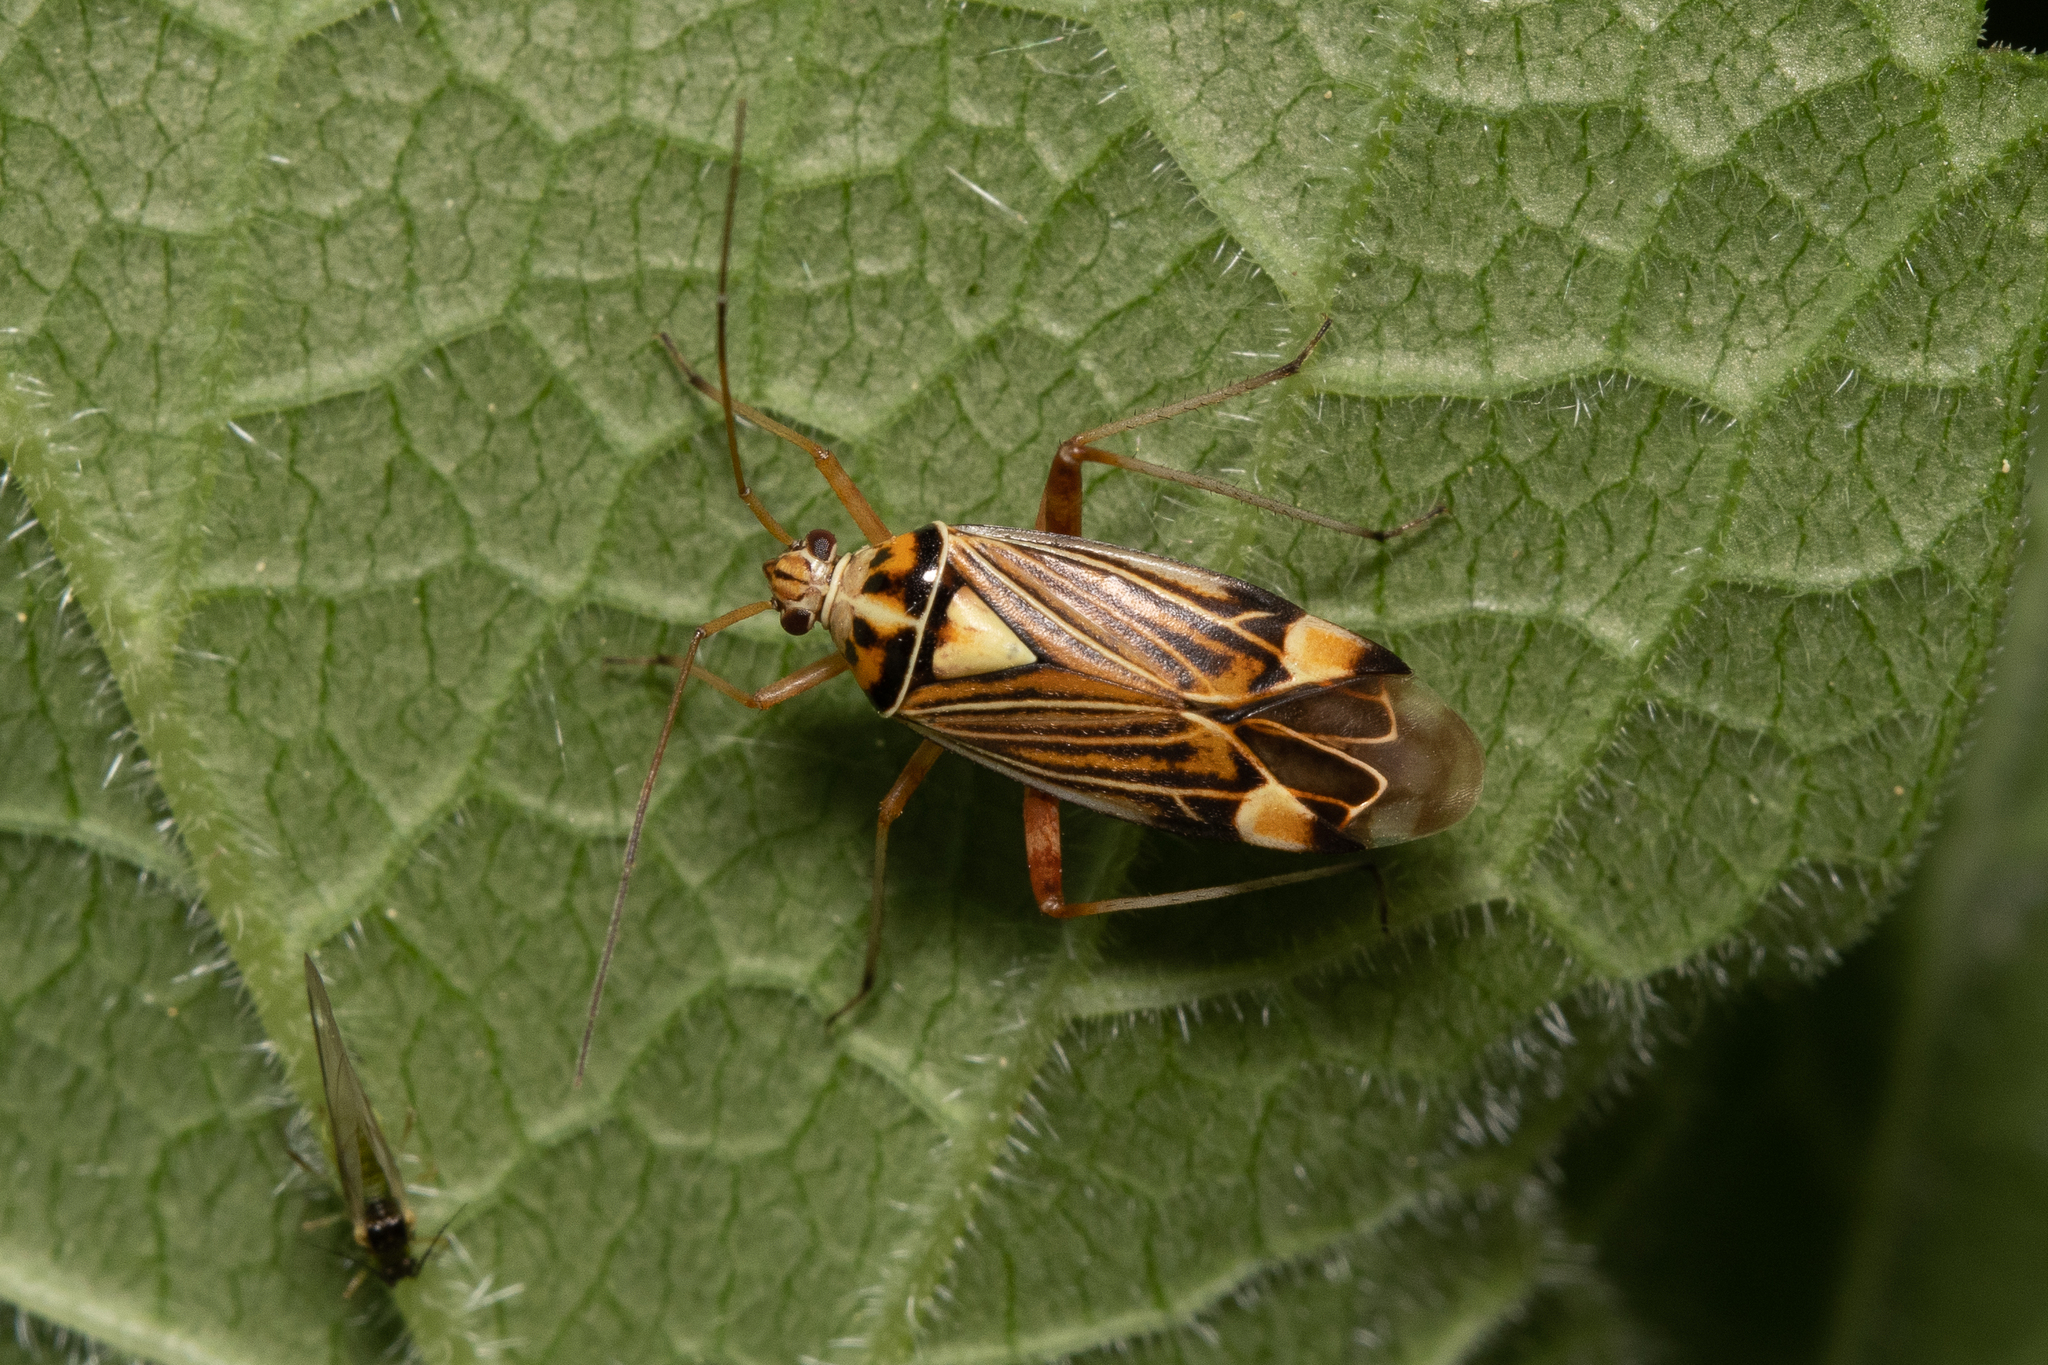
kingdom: Animalia
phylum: Arthropoda
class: Insecta
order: Hemiptera
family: Miridae
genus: Rhabdomiris
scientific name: Rhabdomiris striatellus
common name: Plant bug
